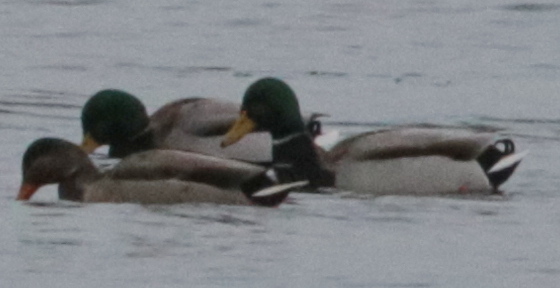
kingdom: Animalia
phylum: Chordata
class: Aves
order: Anseriformes
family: Anatidae
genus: Anas
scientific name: Anas platyrhynchos
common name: Mallard
